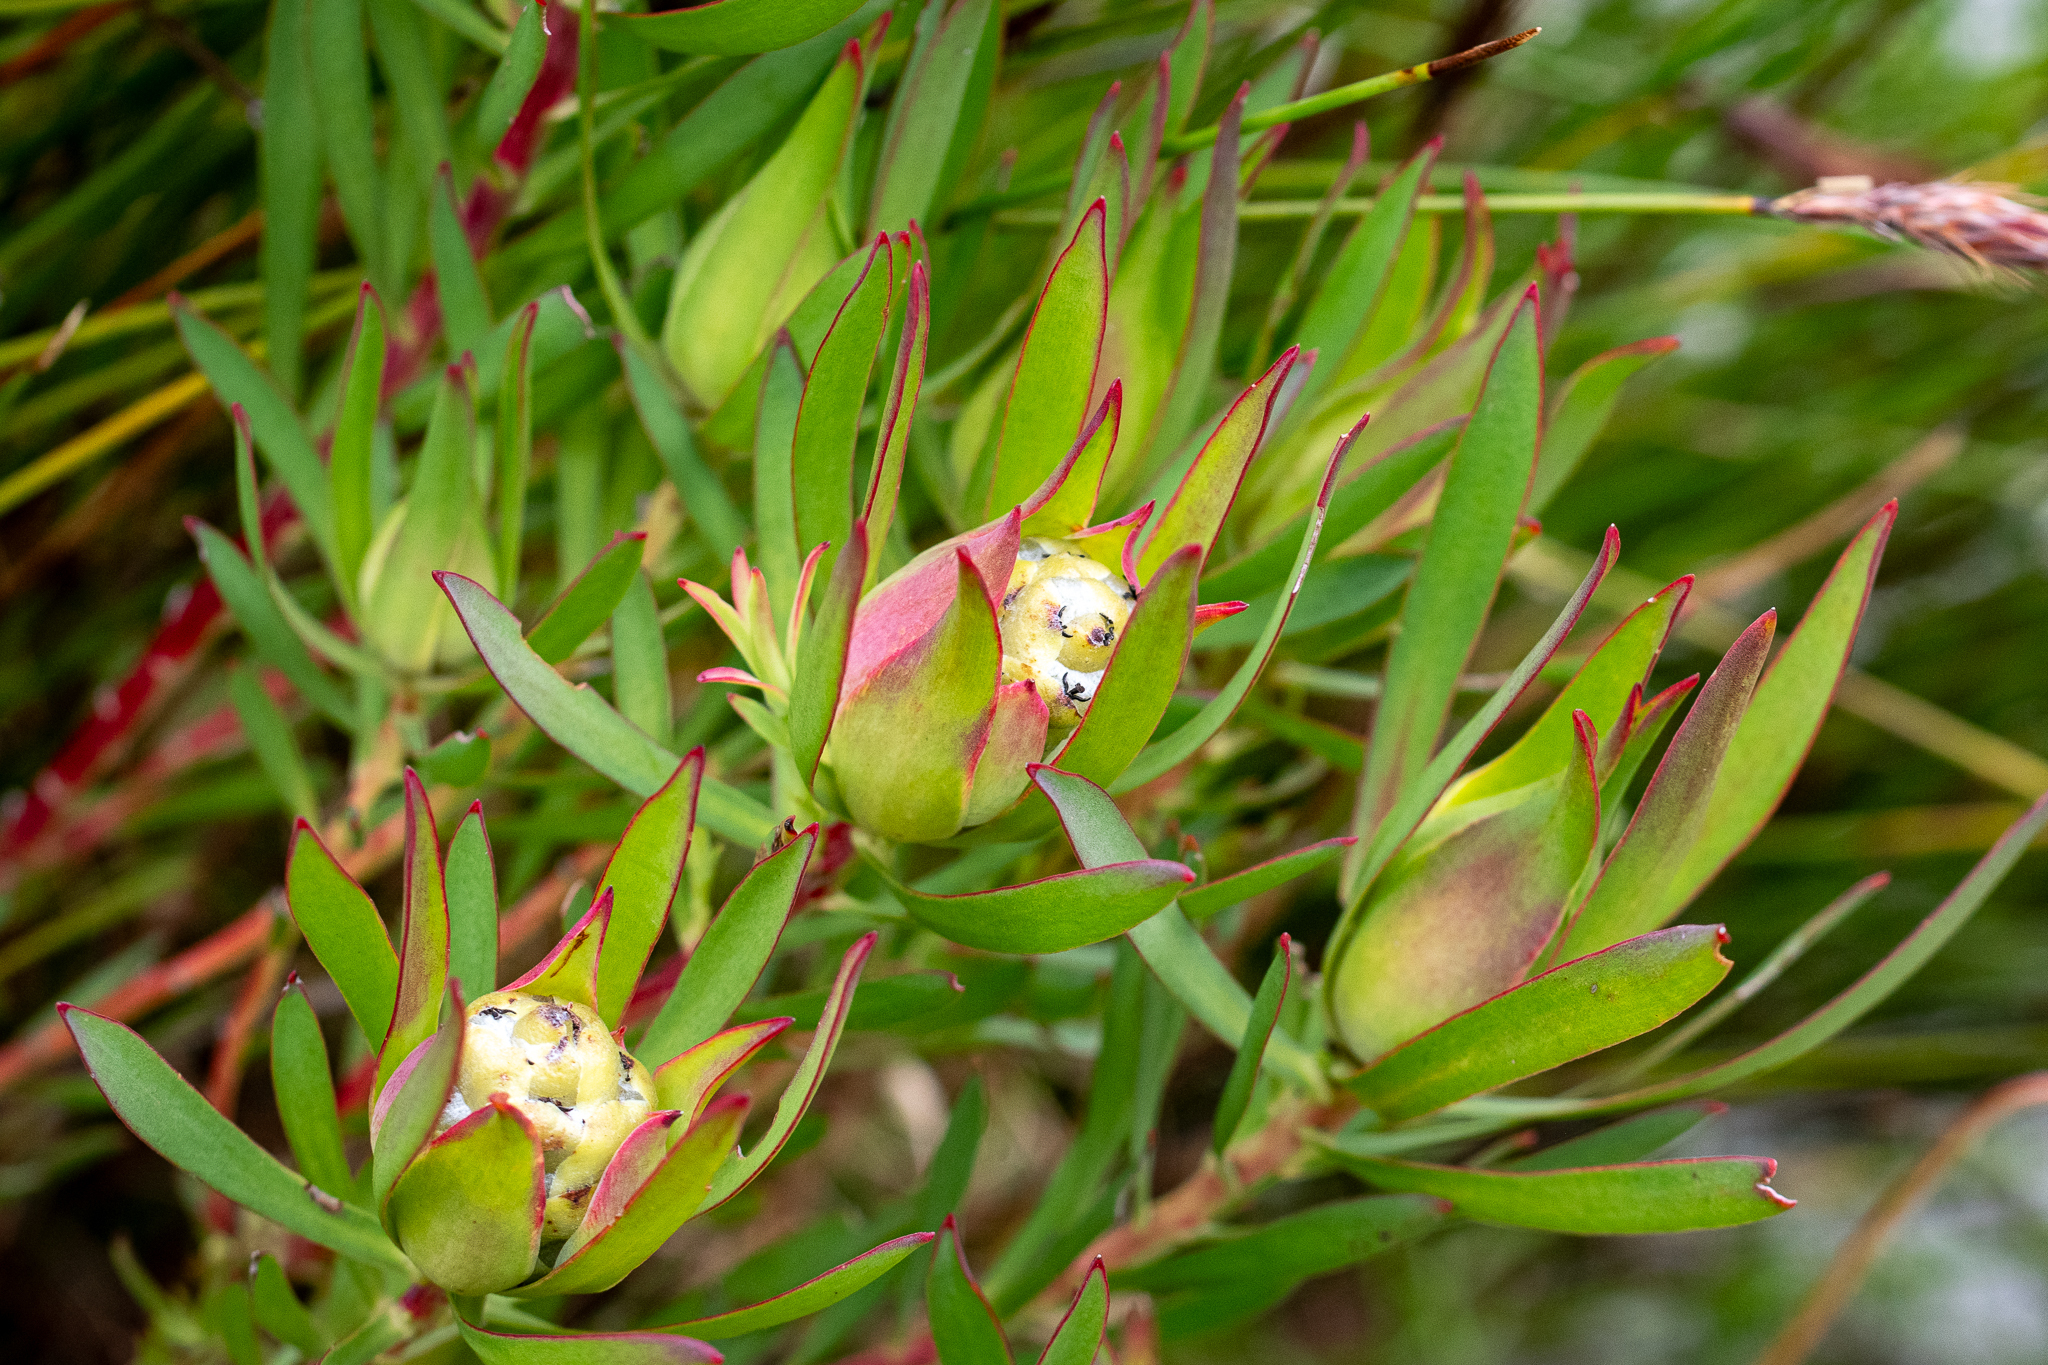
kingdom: Plantae
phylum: Tracheophyta
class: Magnoliopsida
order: Proteales
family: Proteaceae
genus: Leucadendron
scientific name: Leucadendron salignum
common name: Common sunshine conebush
